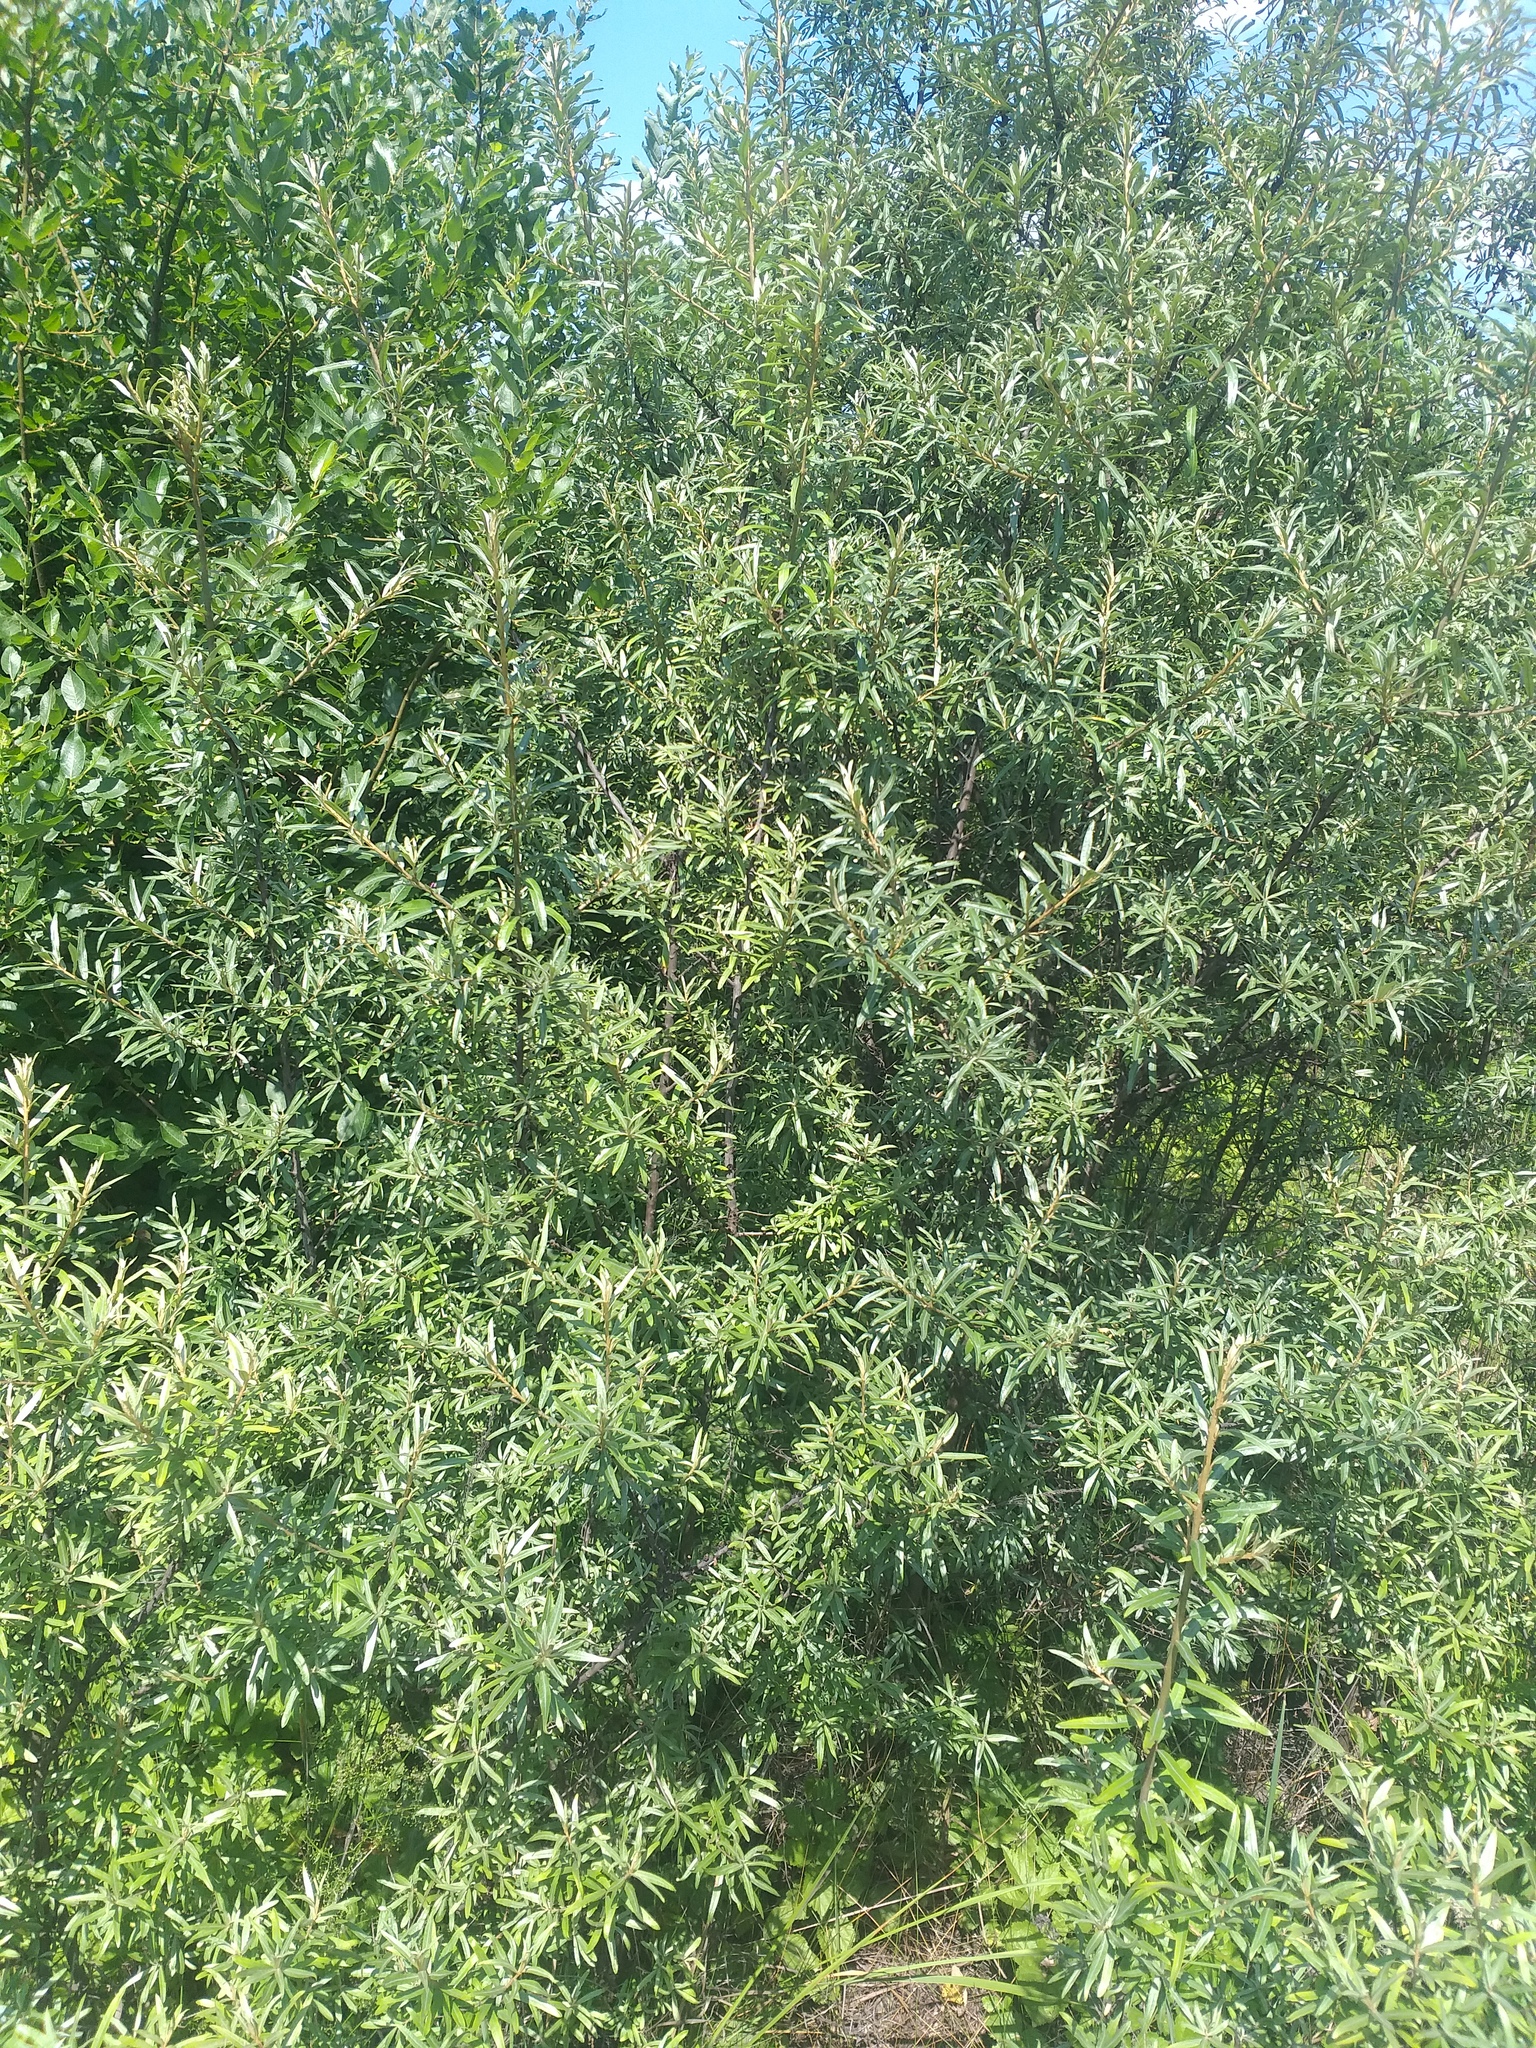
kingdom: Plantae
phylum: Tracheophyta
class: Magnoliopsida
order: Rosales
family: Elaeagnaceae
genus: Hippophae
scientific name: Hippophae rhamnoides
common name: Sea-buckthorn
